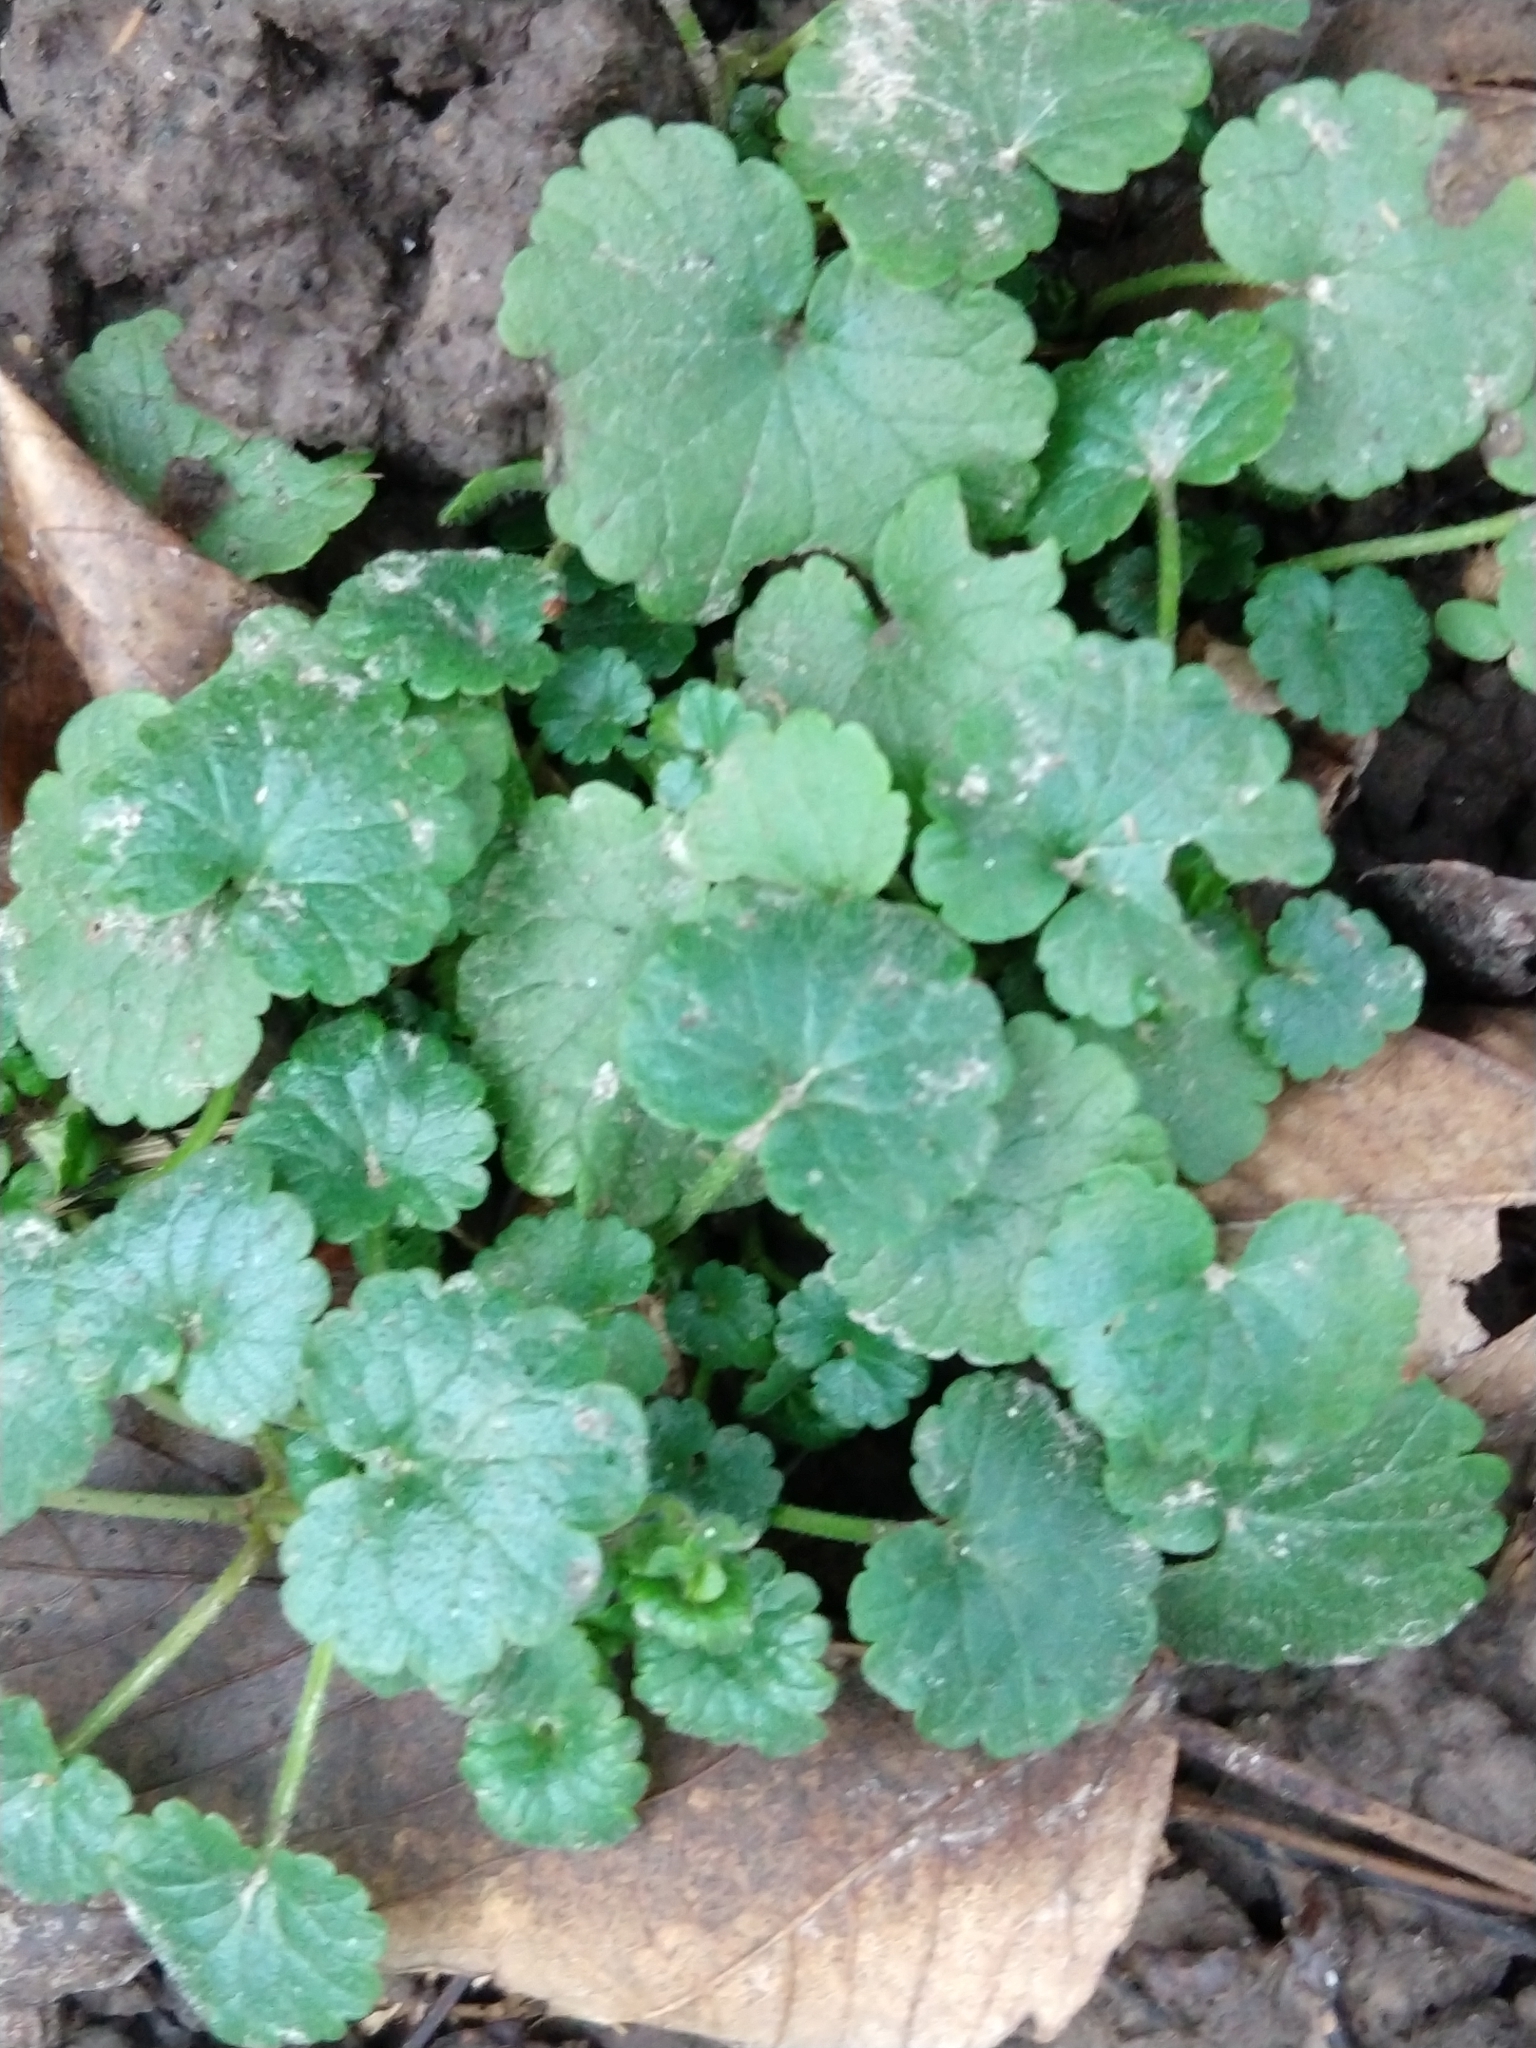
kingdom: Plantae
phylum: Tracheophyta
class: Magnoliopsida
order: Lamiales
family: Lamiaceae
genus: Glechoma
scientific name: Glechoma hederacea
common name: Ground ivy
